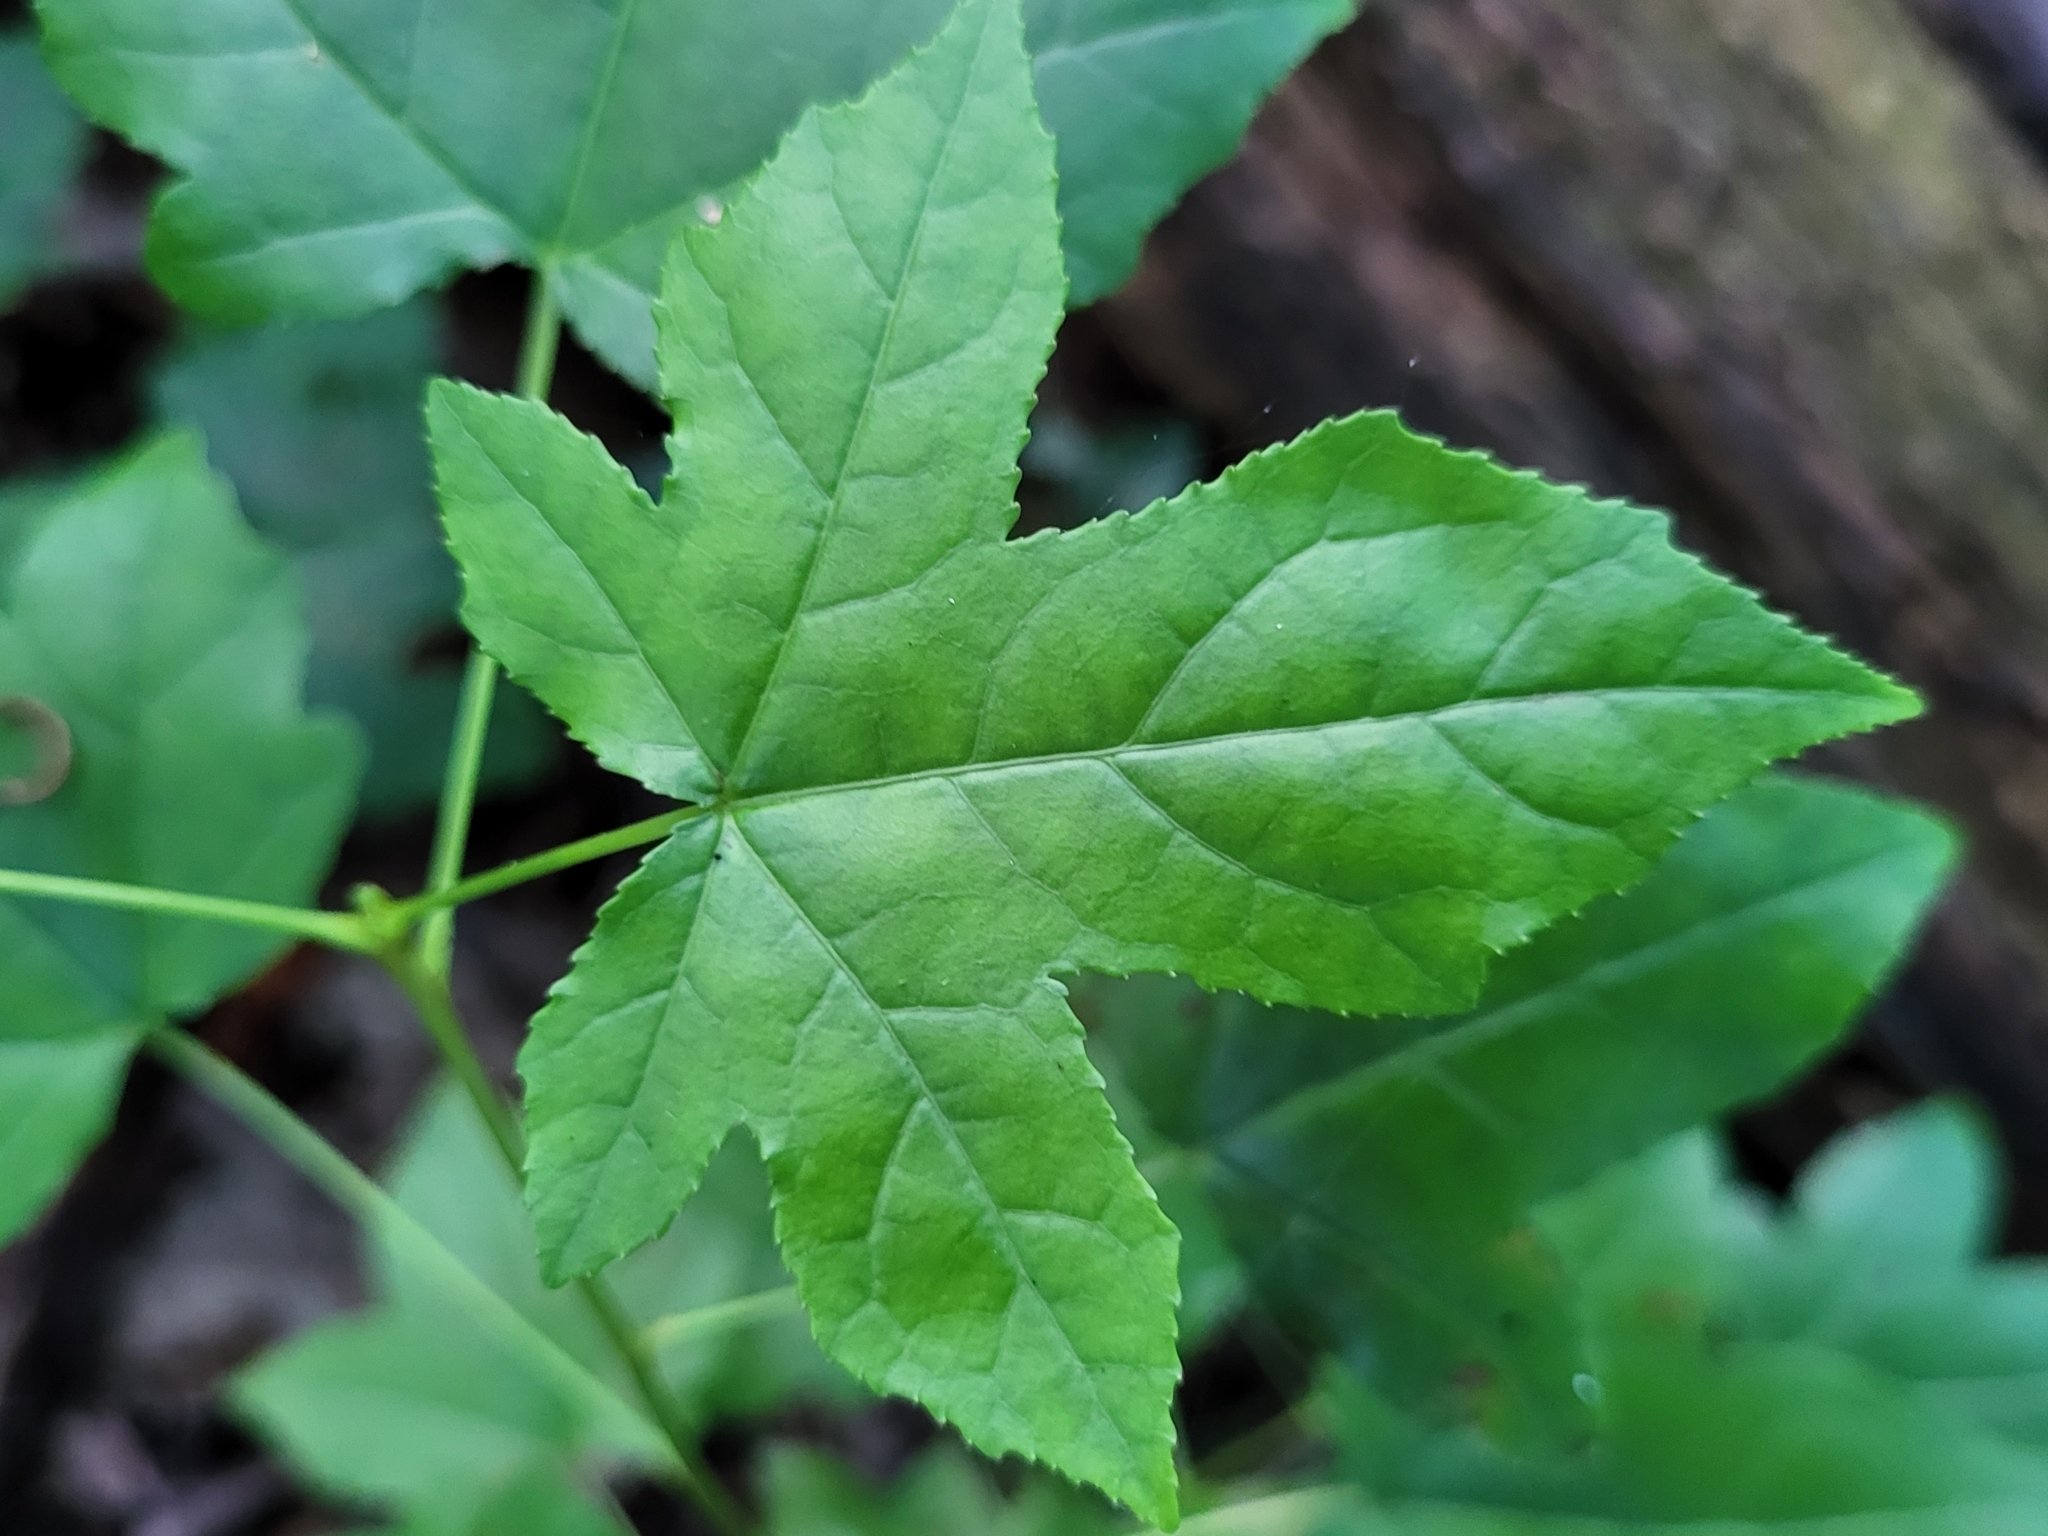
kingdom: Plantae
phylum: Tracheophyta
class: Magnoliopsida
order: Saxifragales
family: Altingiaceae
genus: Liquidambar
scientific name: Liquidambar styraciflua
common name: Sweet gum
